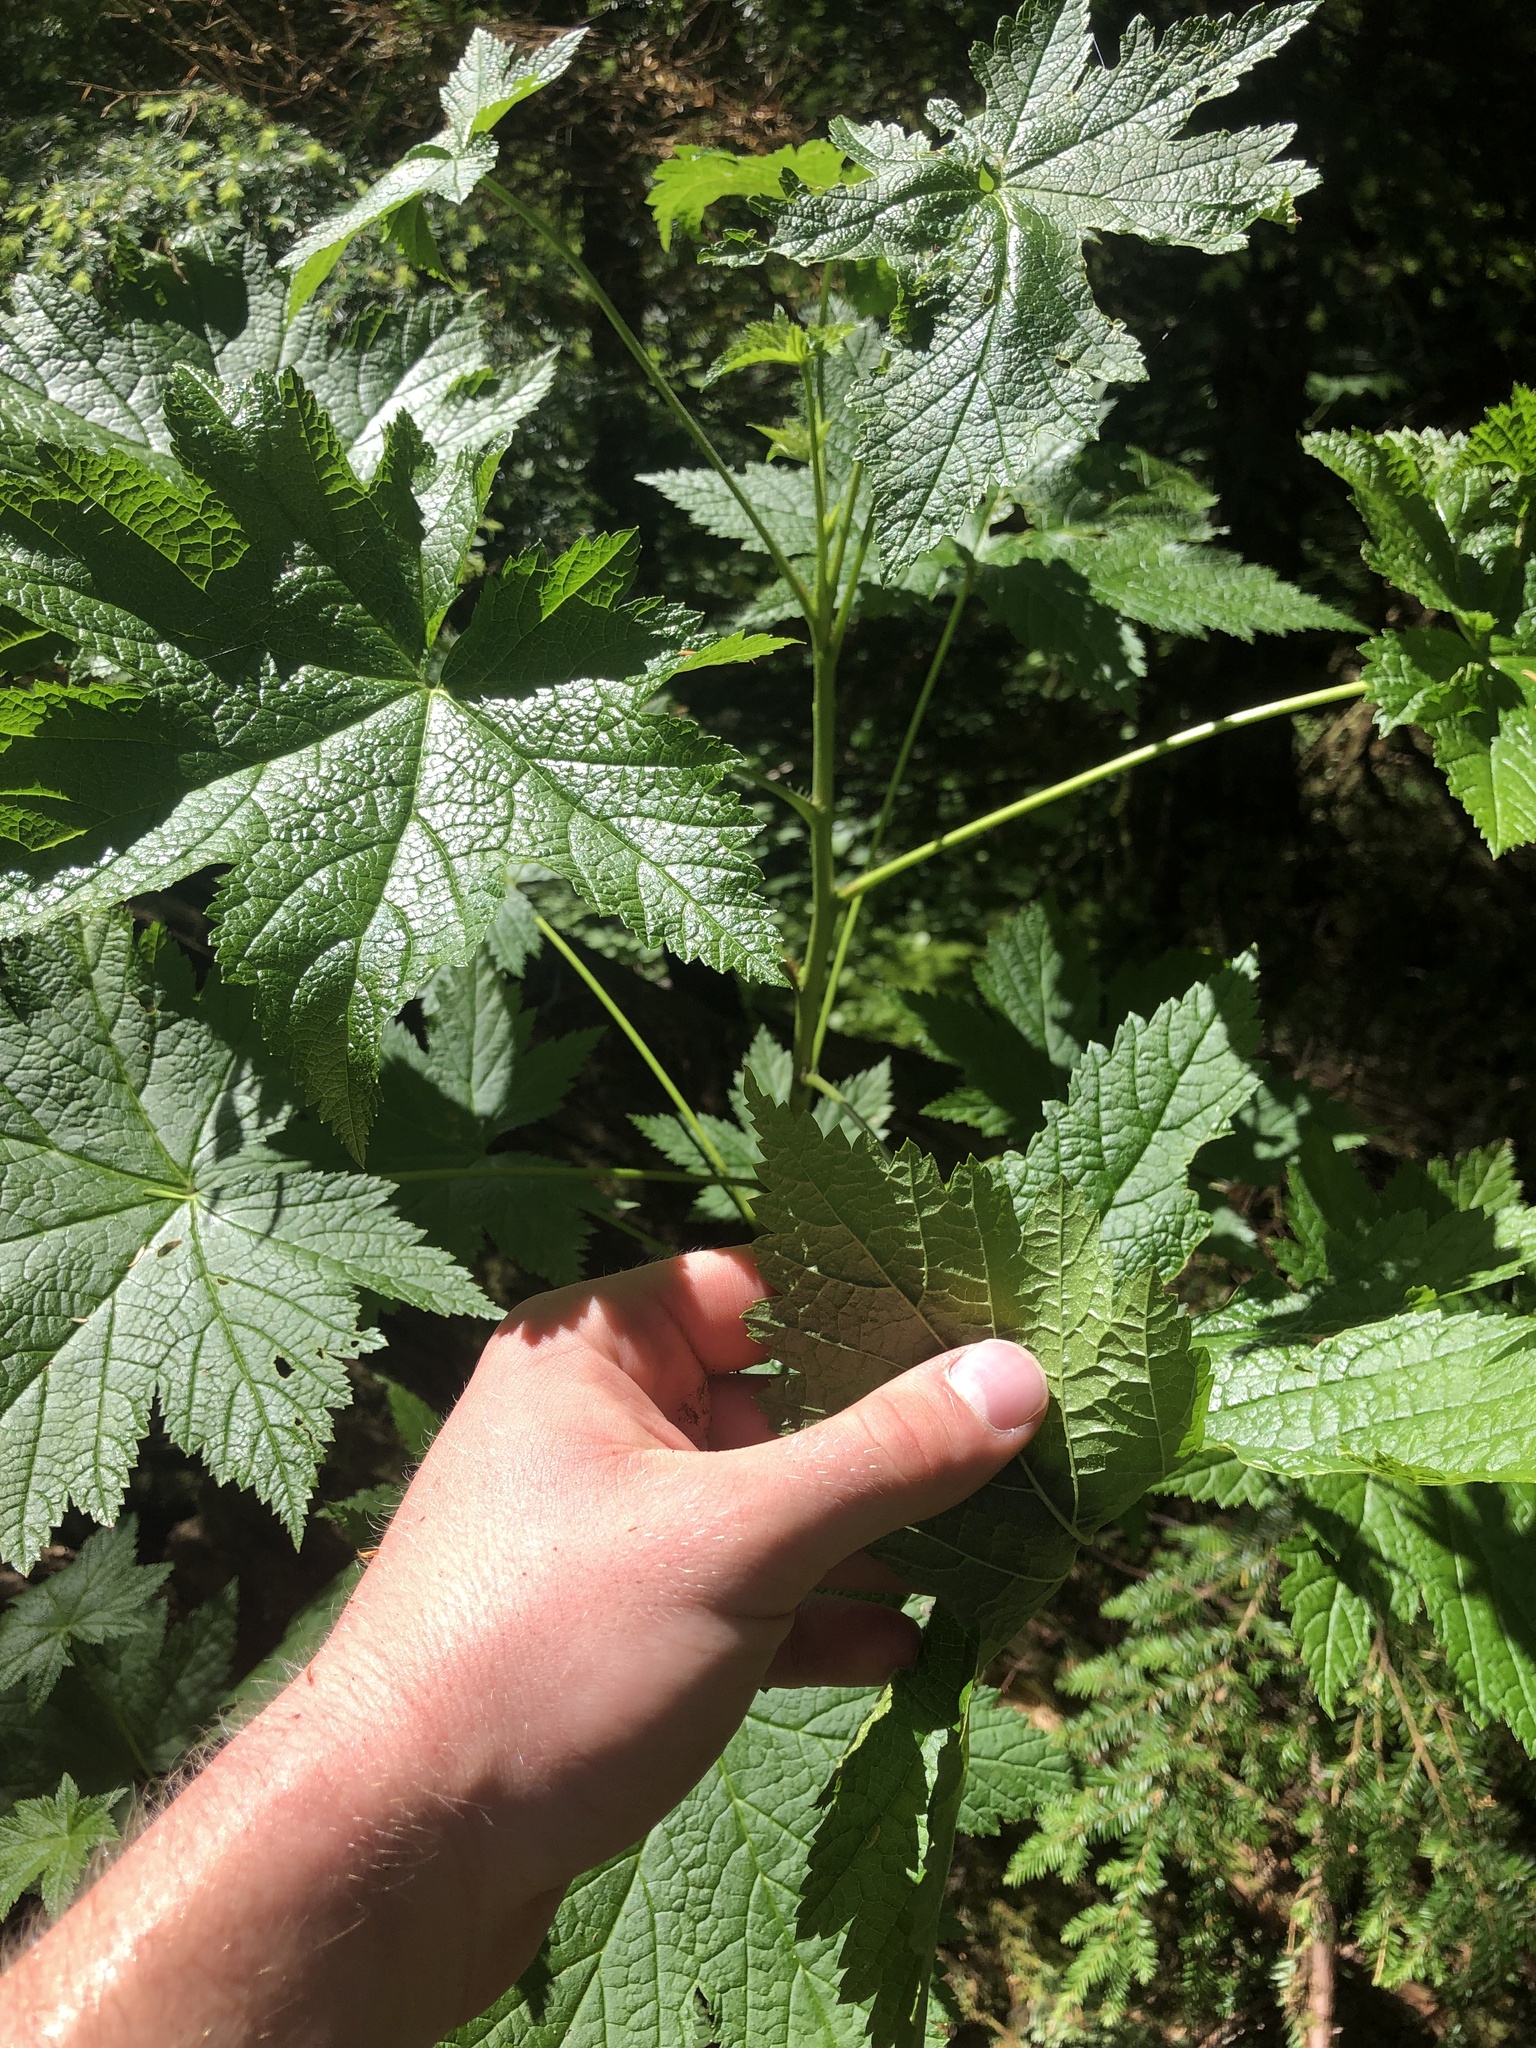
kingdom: Plantae
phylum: Tracheophyta
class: Magnoliopsida
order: Saxifragales
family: Grossulariaceae
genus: Ribes
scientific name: Ribes bracteosum
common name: California black currant
